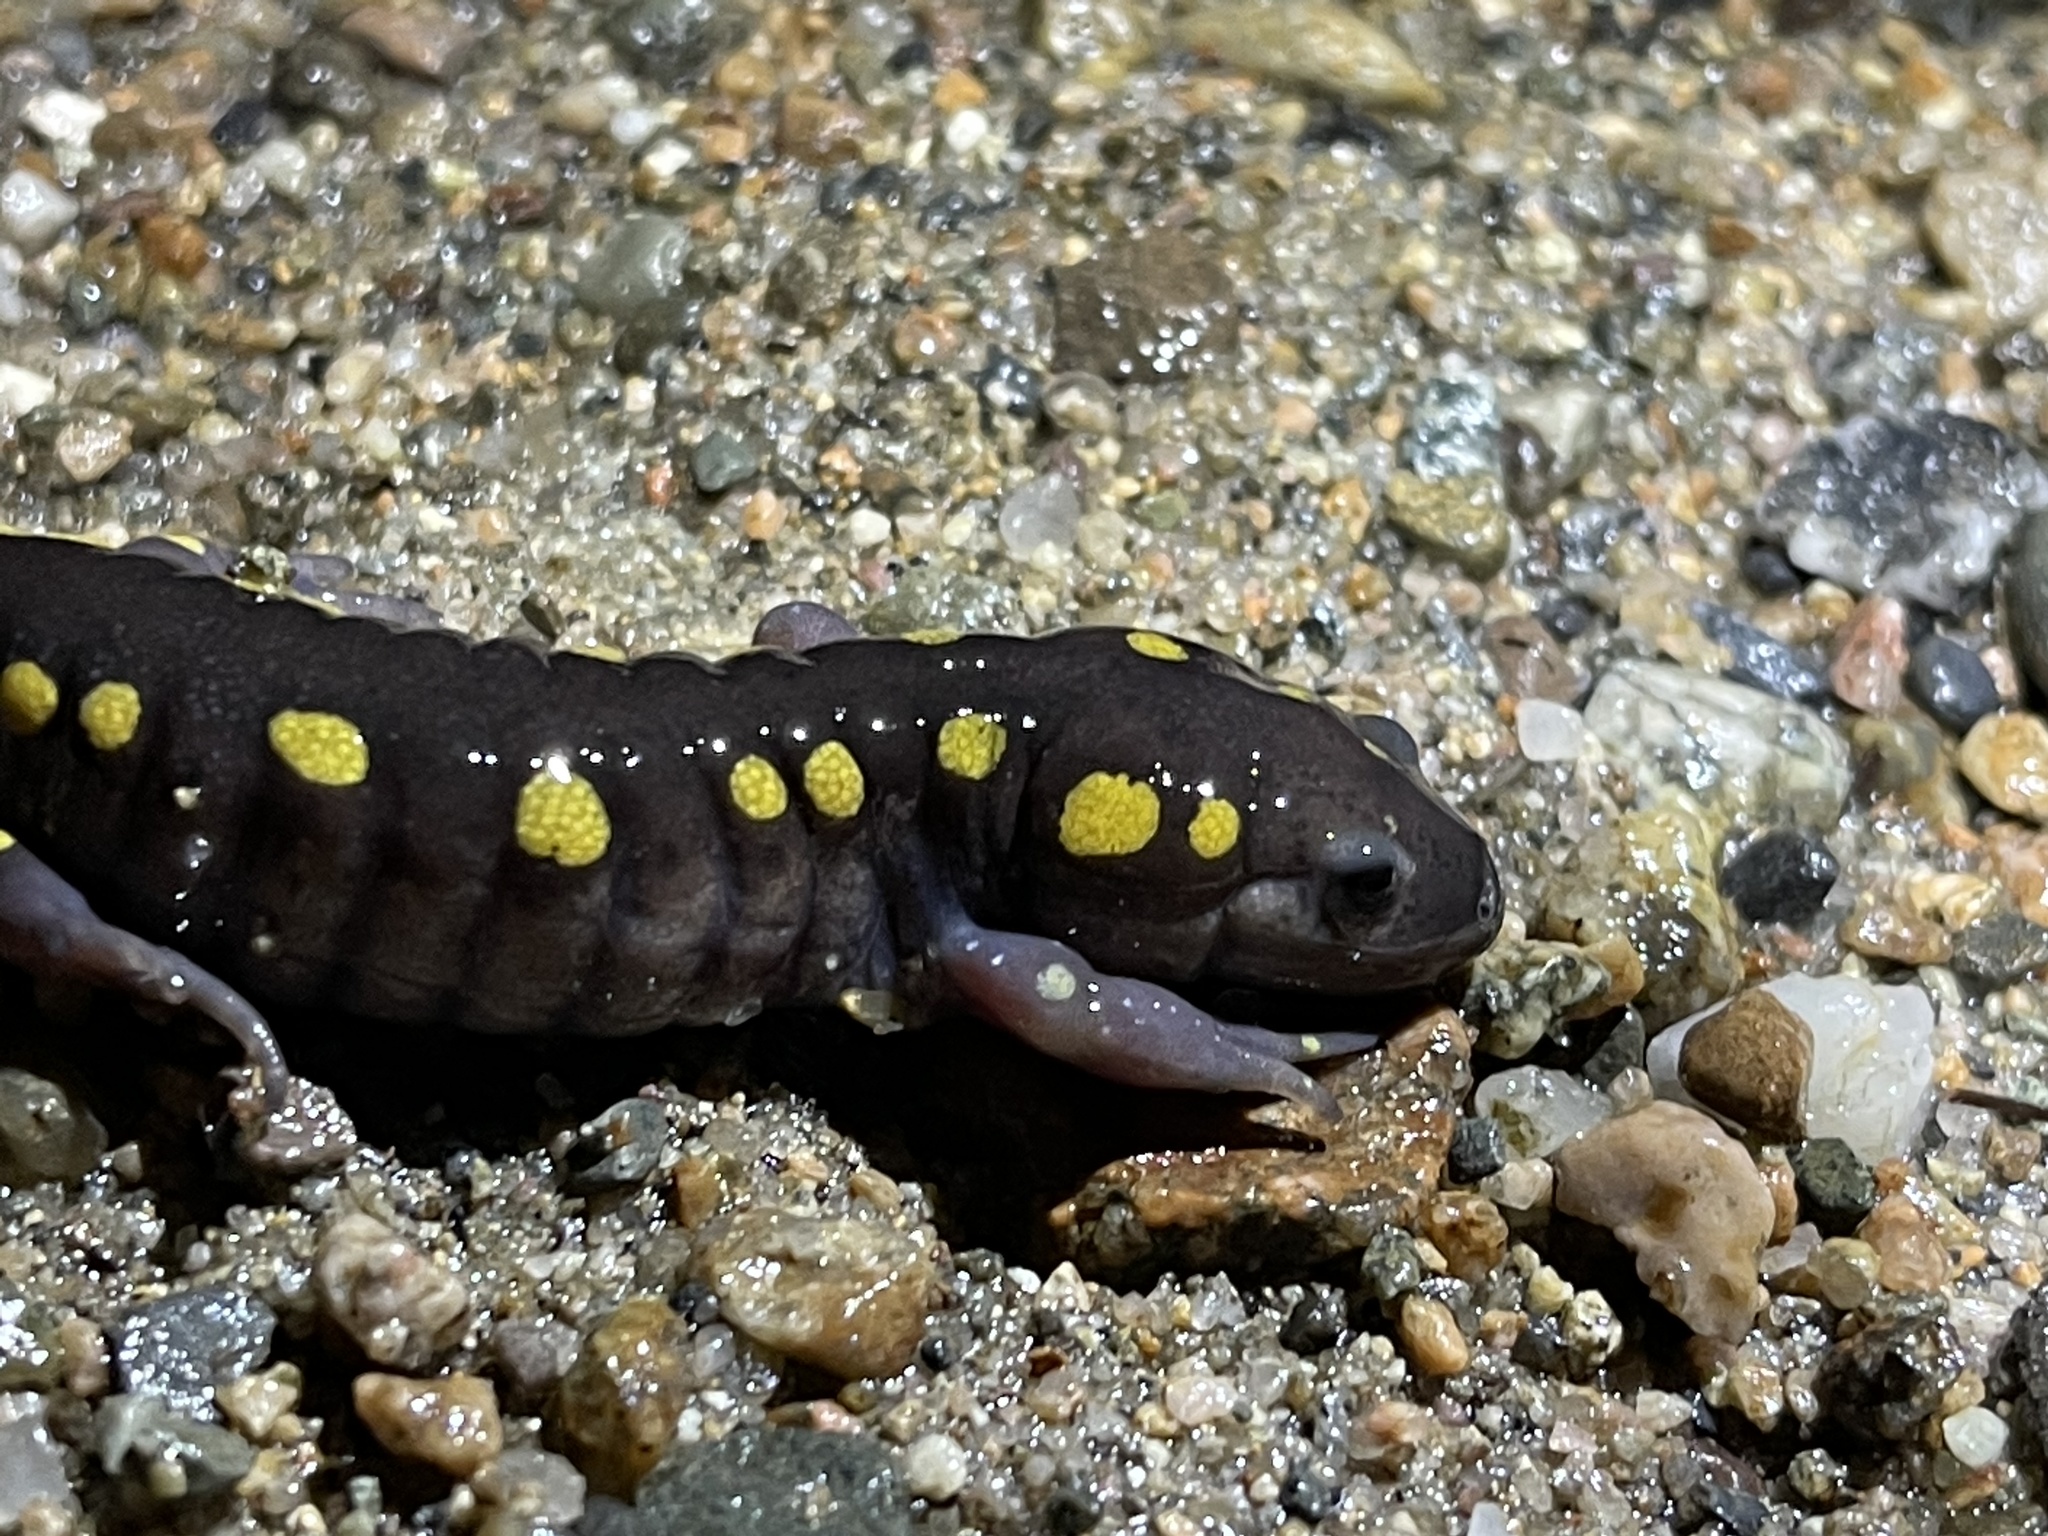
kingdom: Animalia
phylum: Chordata
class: Amphibia
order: Caudata
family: Ambystomatidae
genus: Ambystoma
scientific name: Ambystoma maculatum
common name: Spotted salamander
